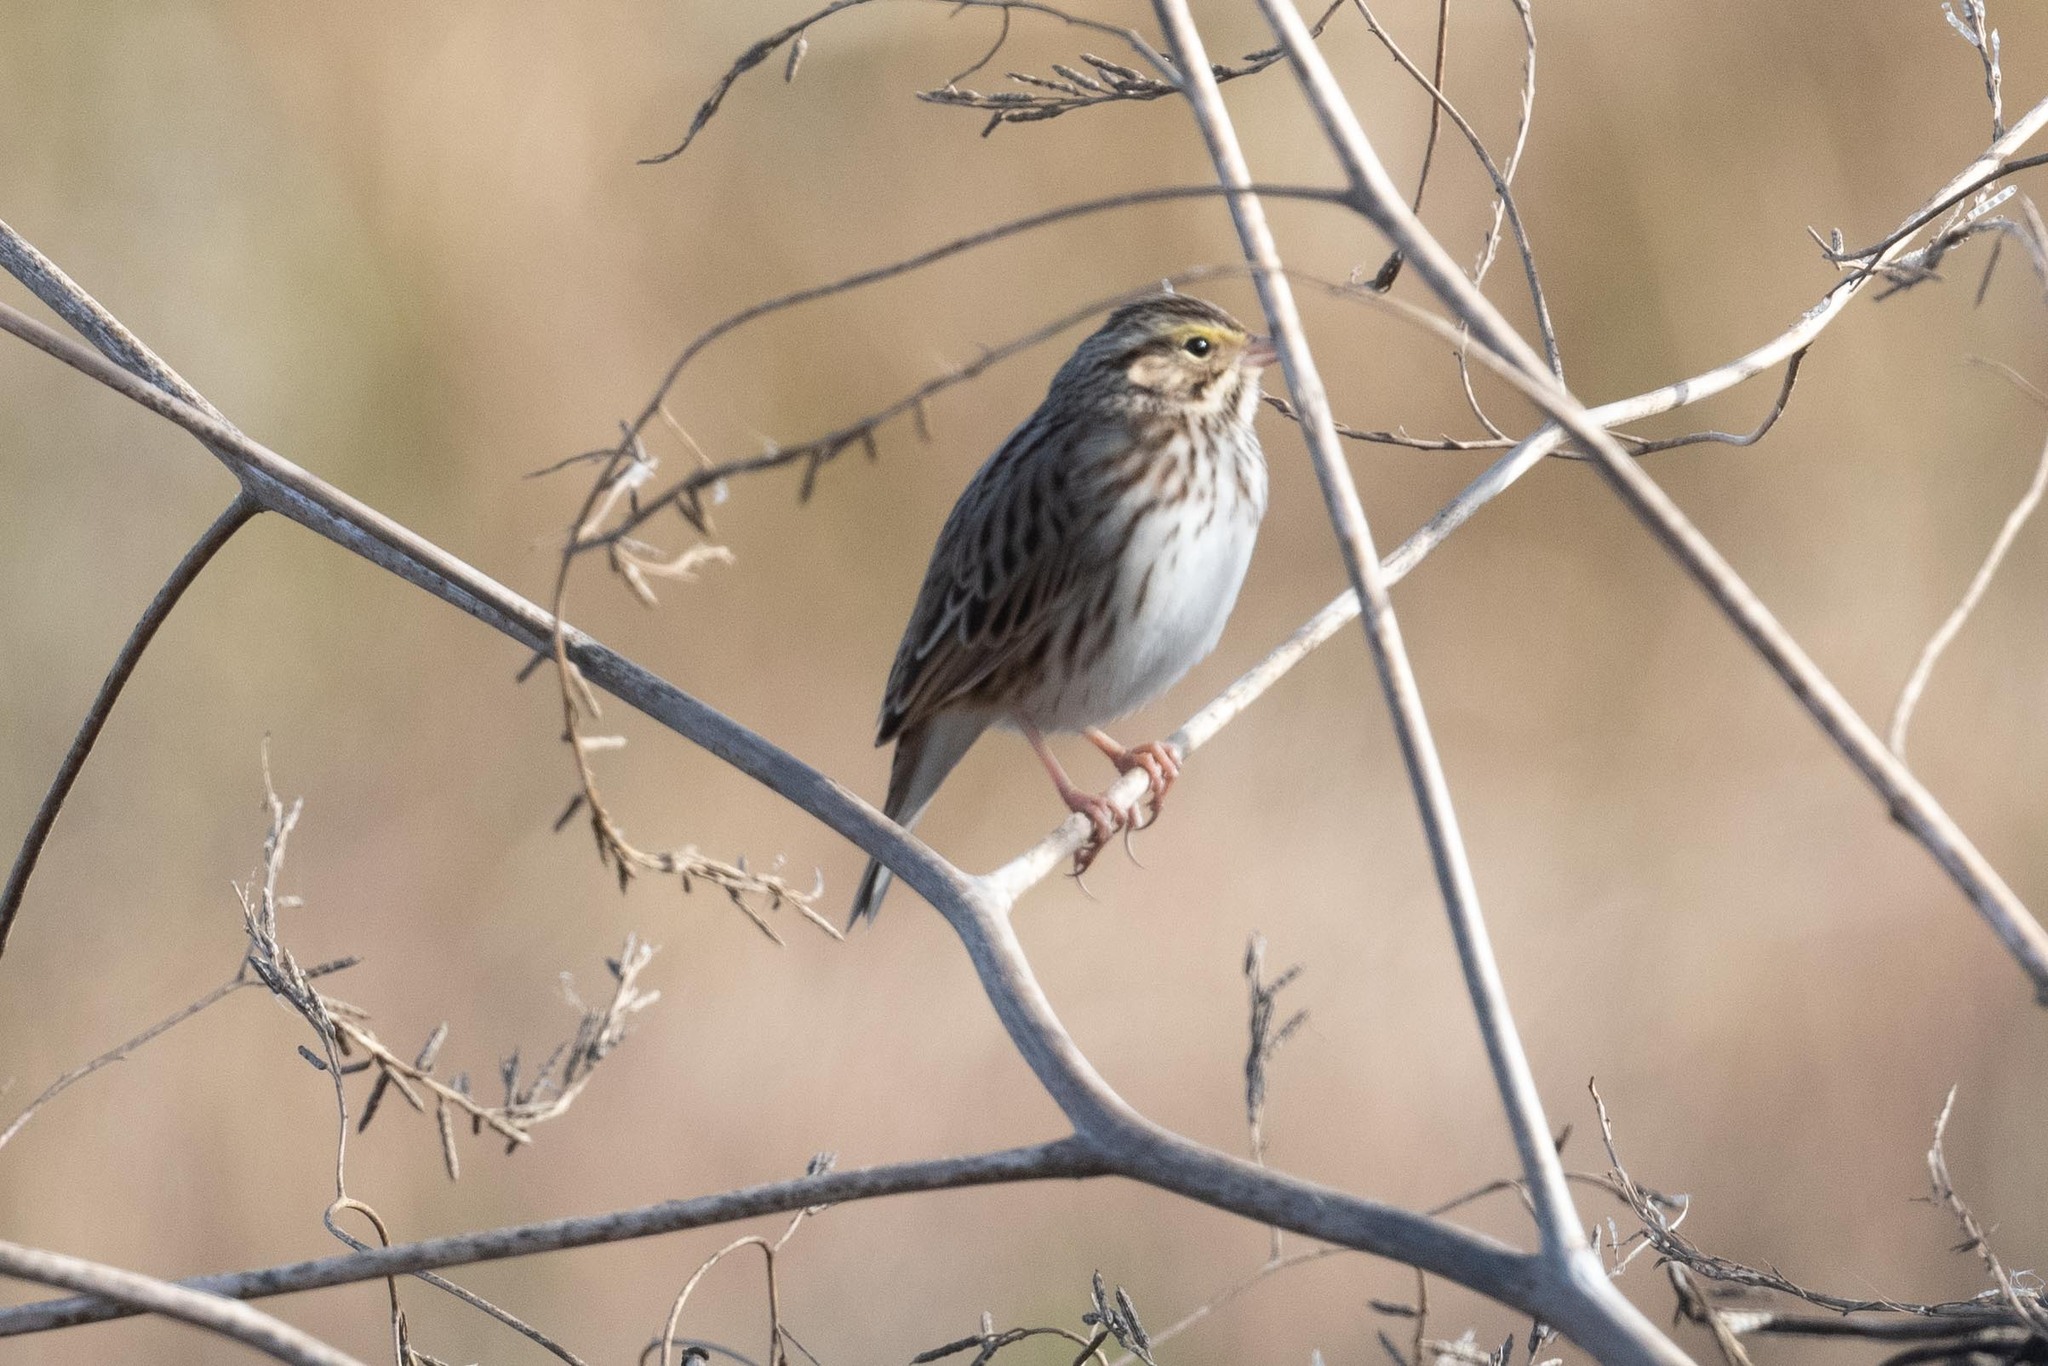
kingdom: Animalia
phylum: Chordata
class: Aves
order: Passeriformes
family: Passerellidae
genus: Passerculus
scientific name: Passerculus sandwichensis
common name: Savannah sparrow
